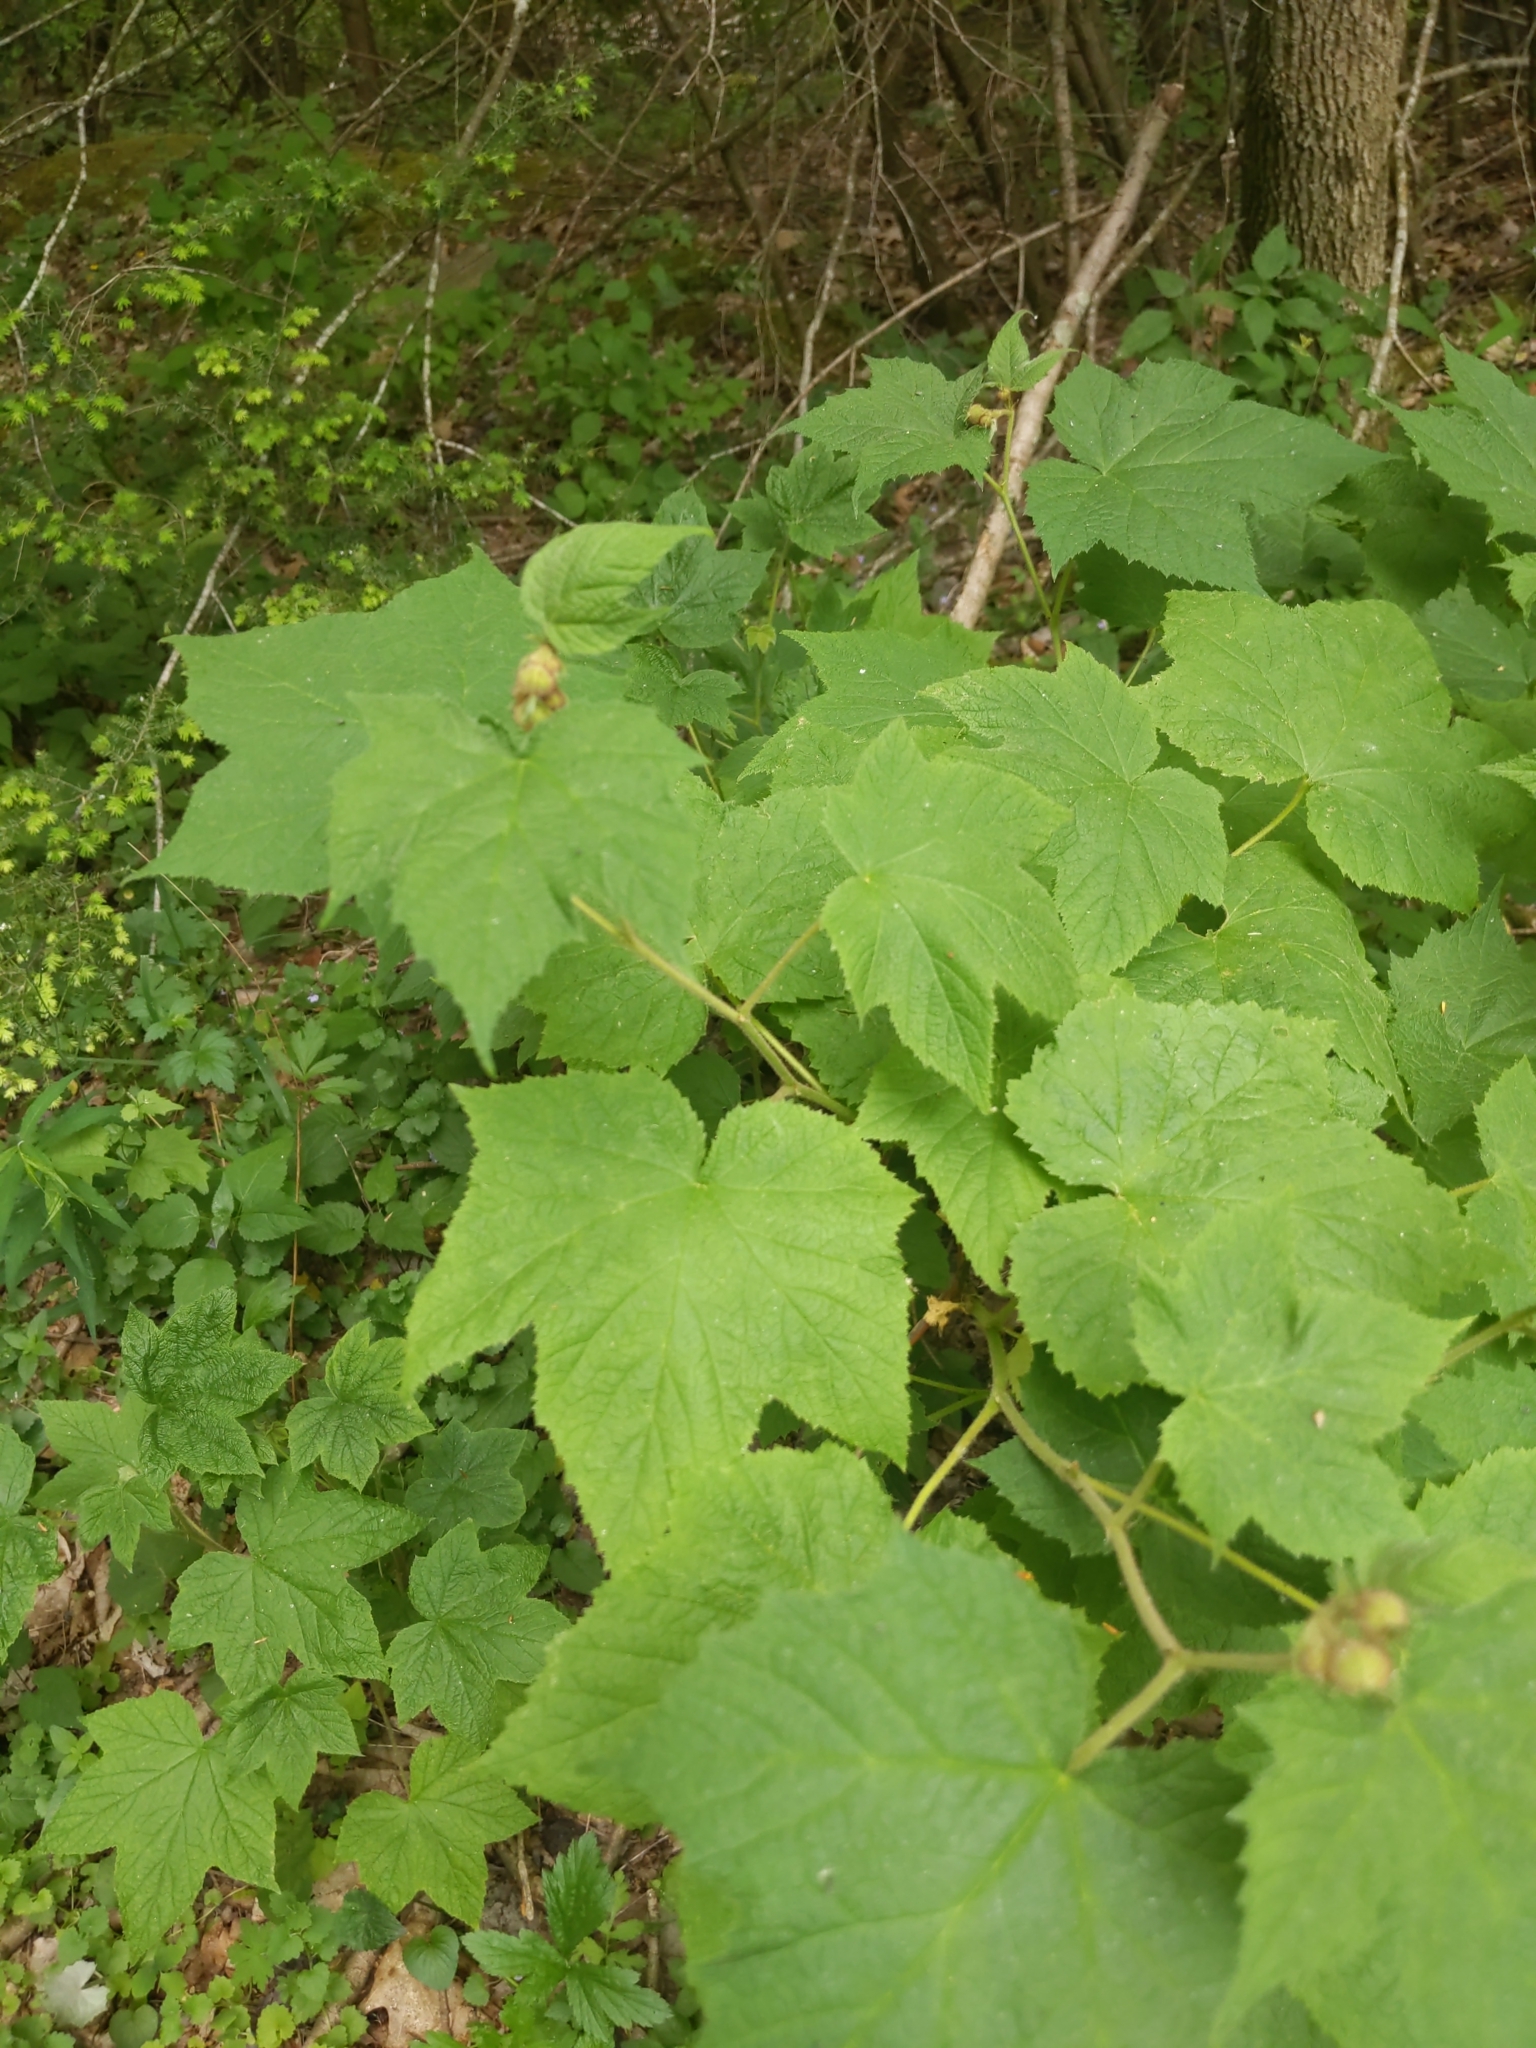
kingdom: Plantae
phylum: Tracheophyta
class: Magnoliopsida
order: Rosales
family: Rosaceae
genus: Rubus
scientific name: Rubus odoratus
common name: Purple-flowered raspberry
